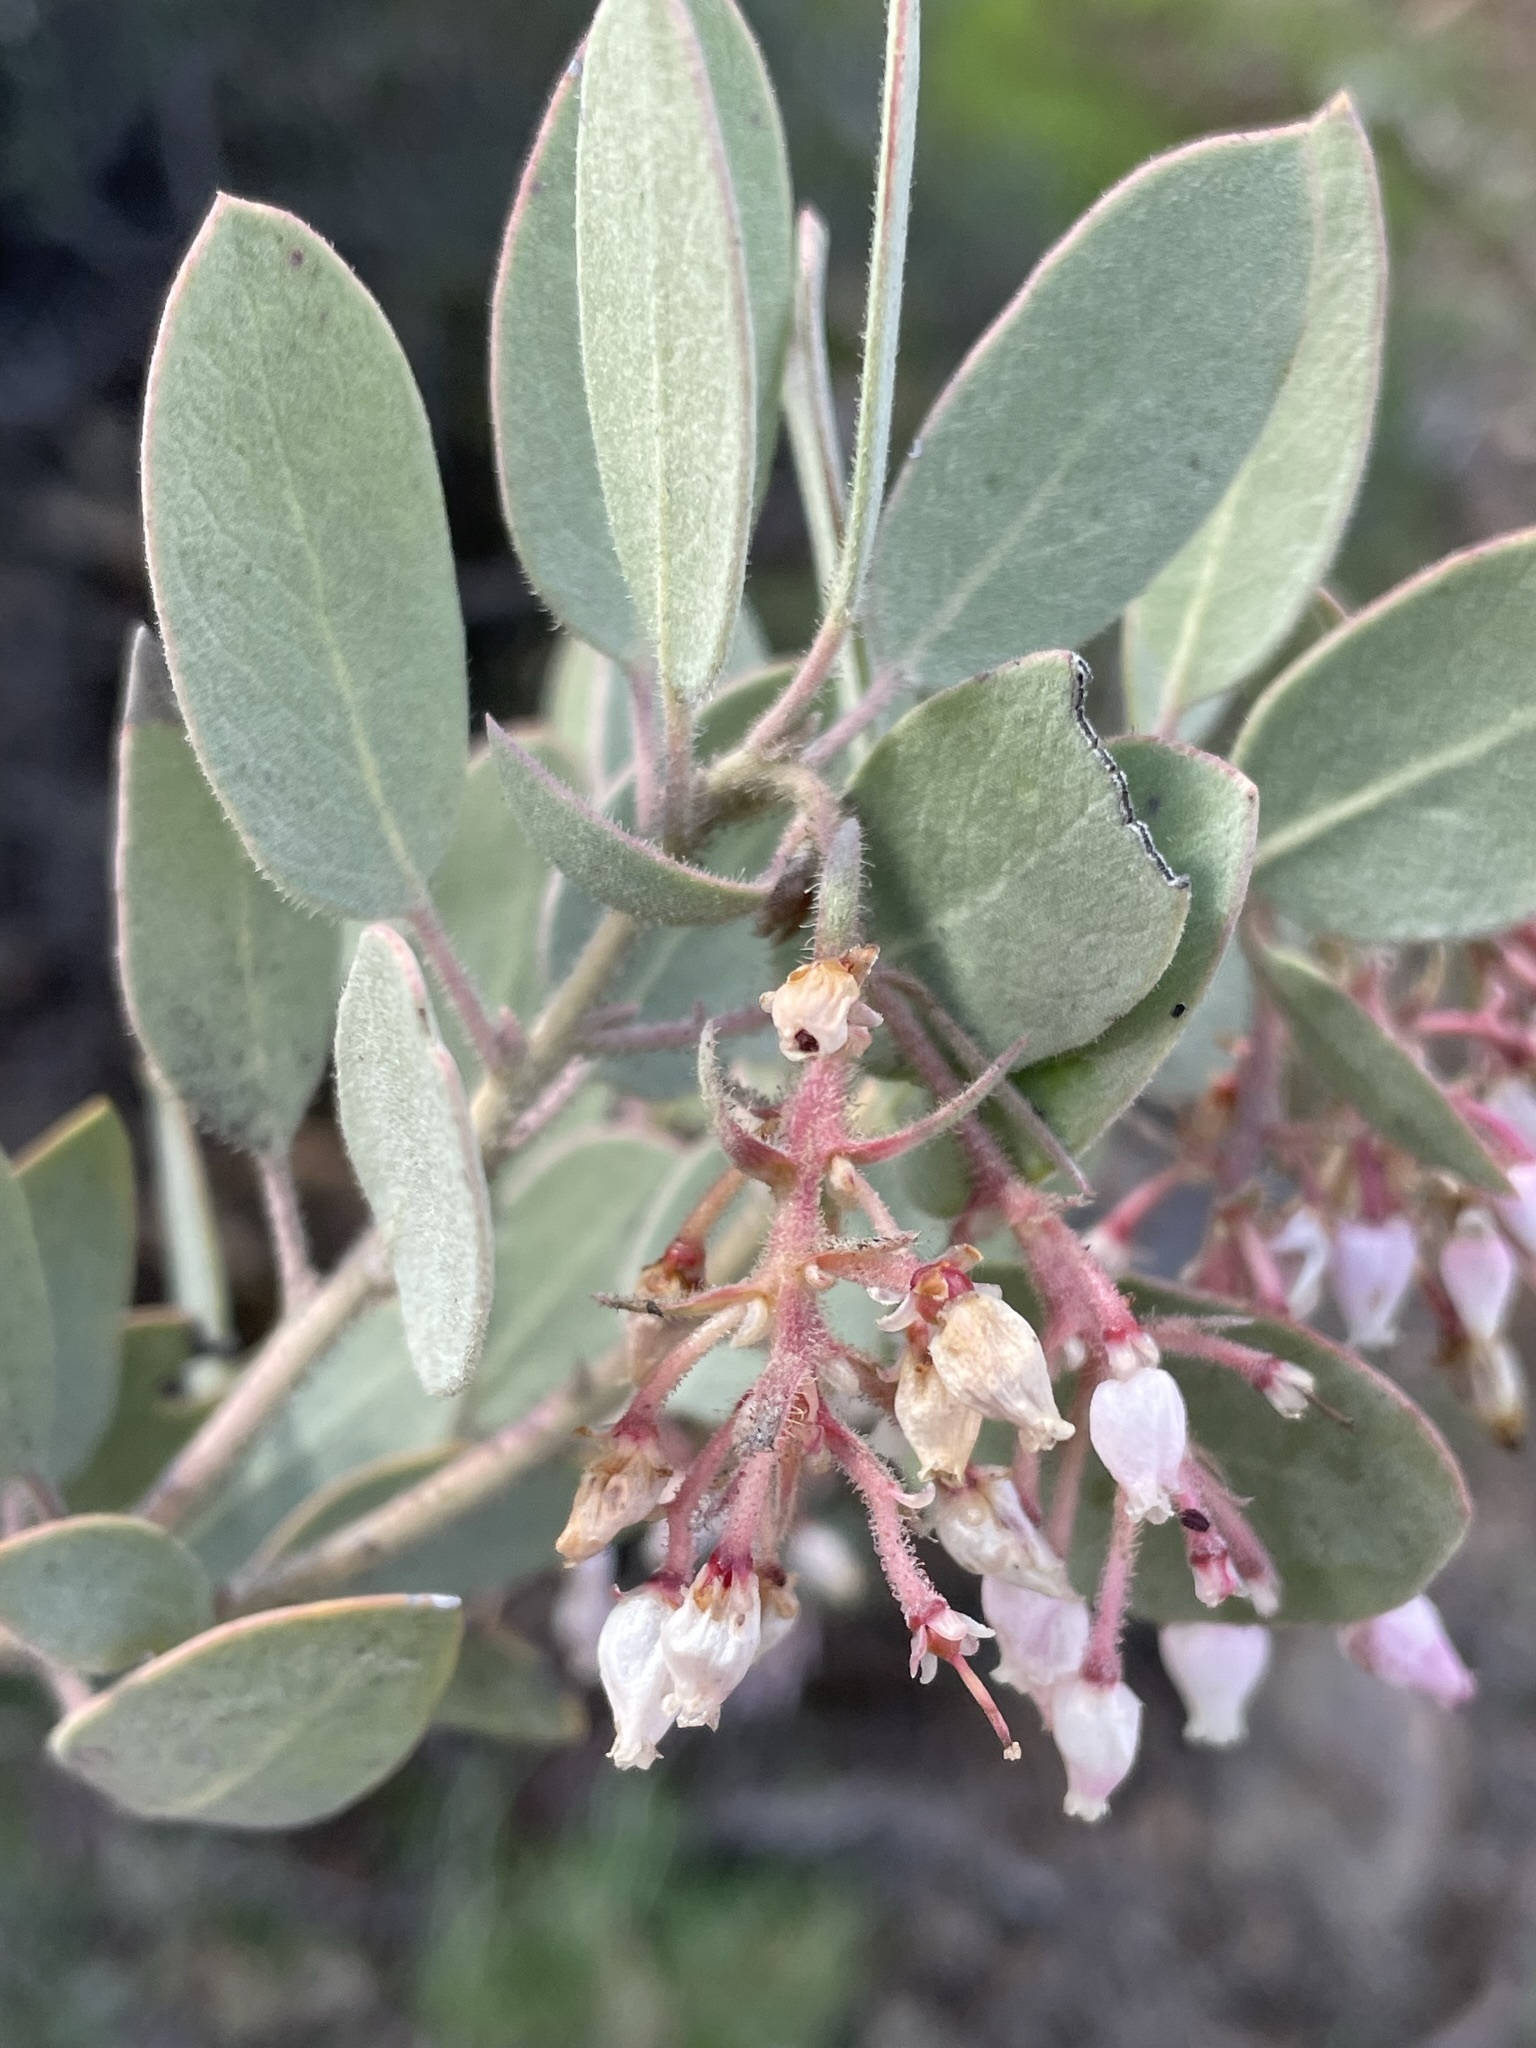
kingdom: Plantae
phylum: Tracheophyta
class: Magnoliopsida
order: Ericales
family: Ericaceae
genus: Arctostaphylos
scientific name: Arctostaphylos glandulosa
